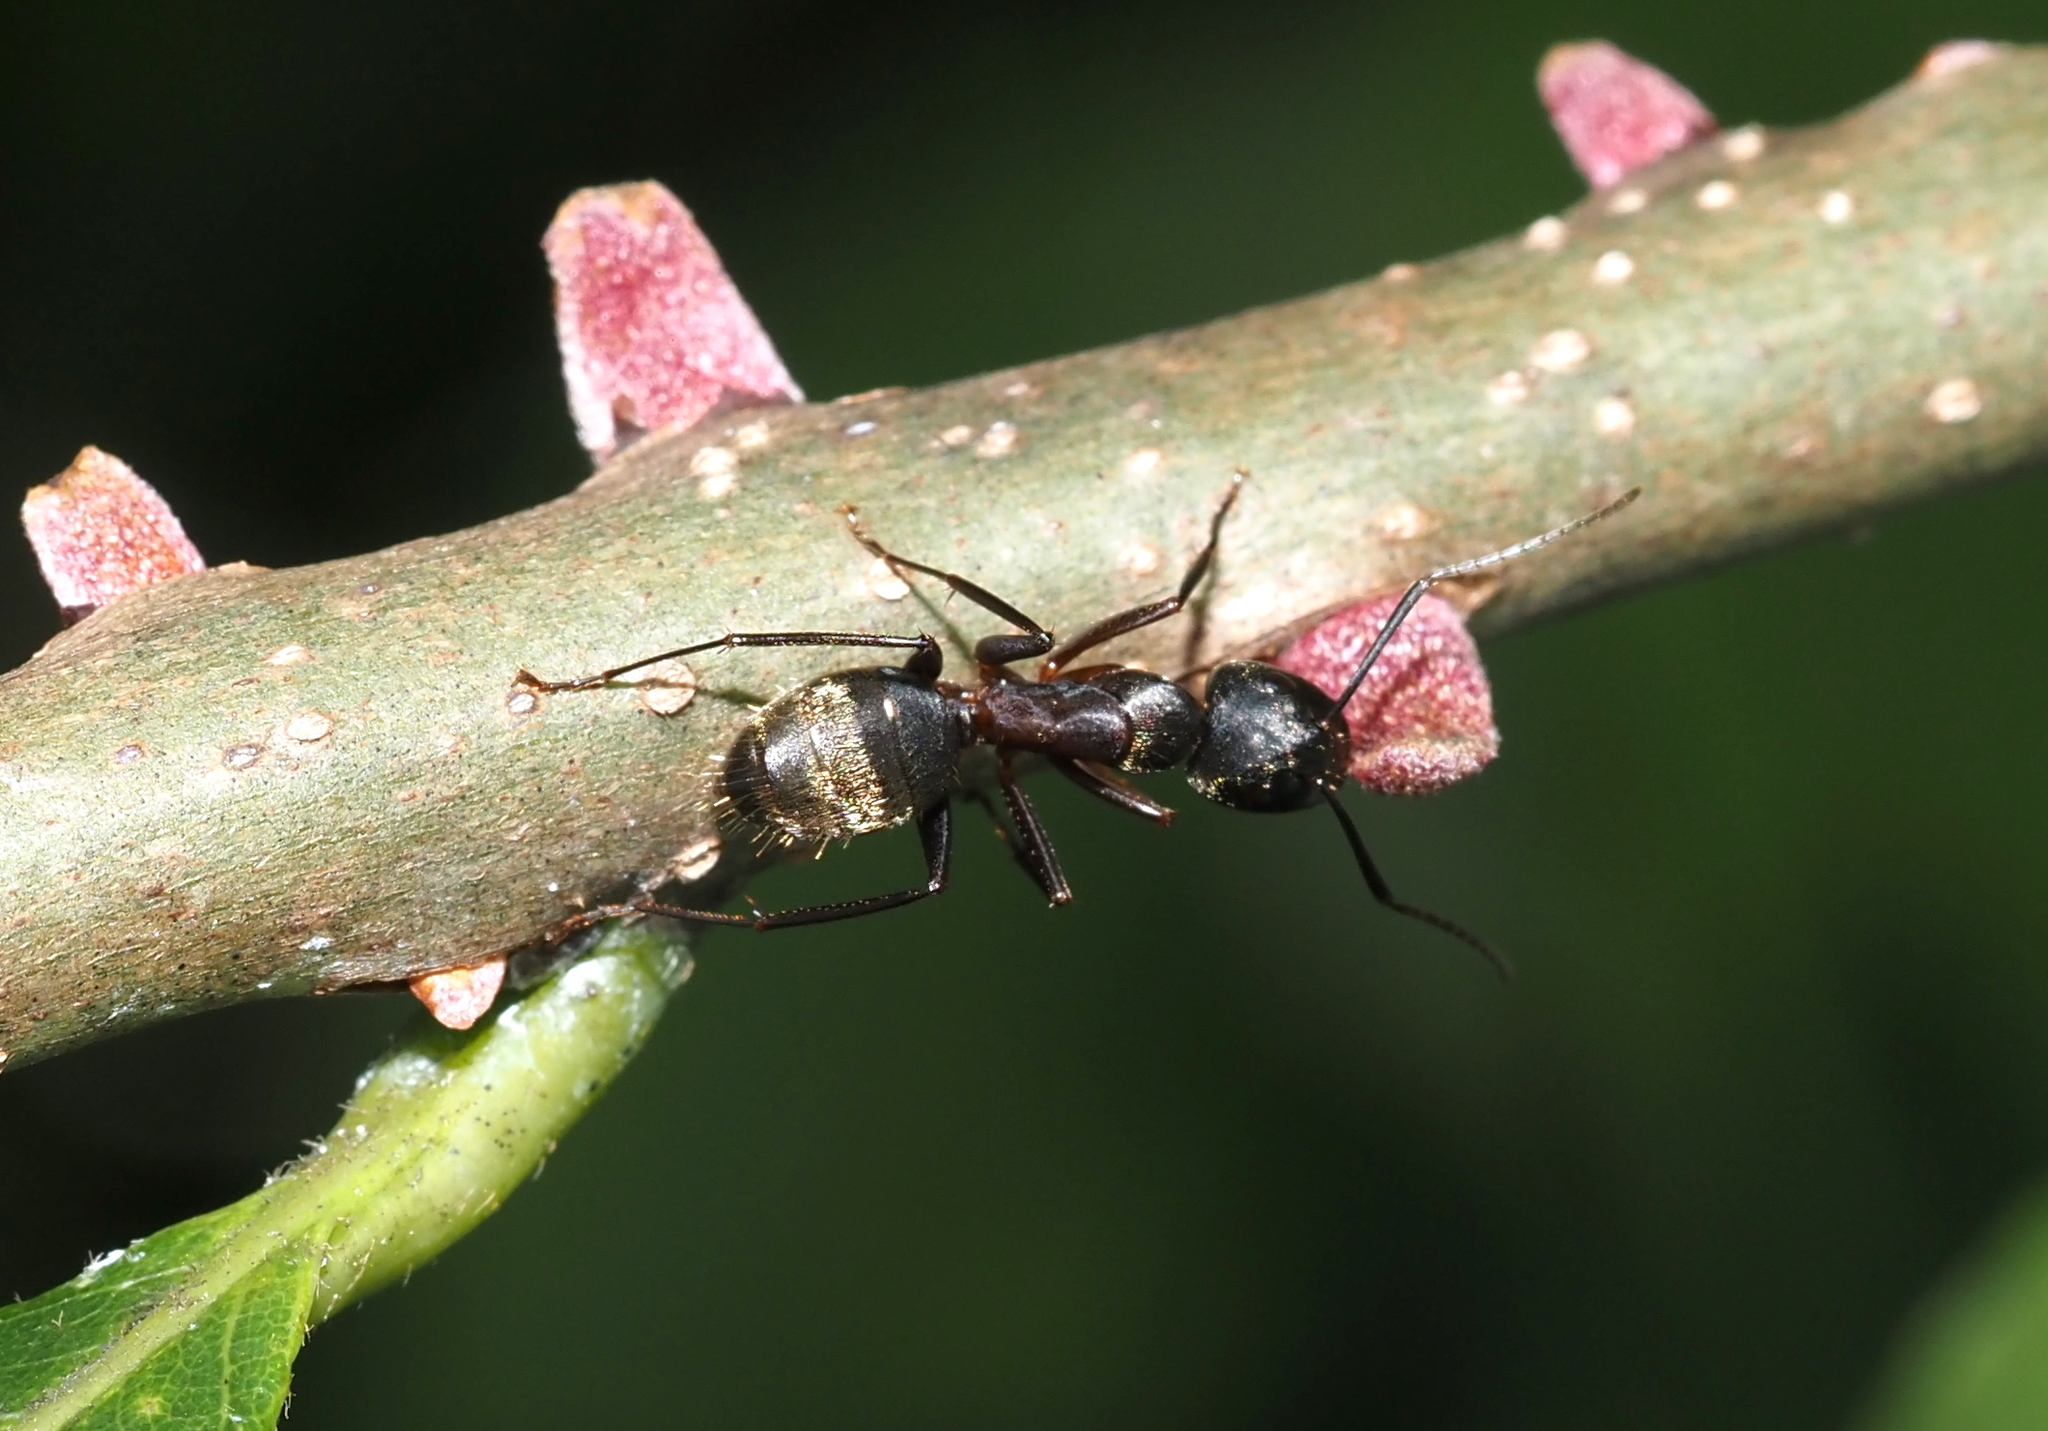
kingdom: Animalia
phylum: Arthropoda
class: Insecta
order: Hymenoptera
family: Formicidae
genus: Camponotus
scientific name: Camponotus chromaiodes
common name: Red carpenter ant
